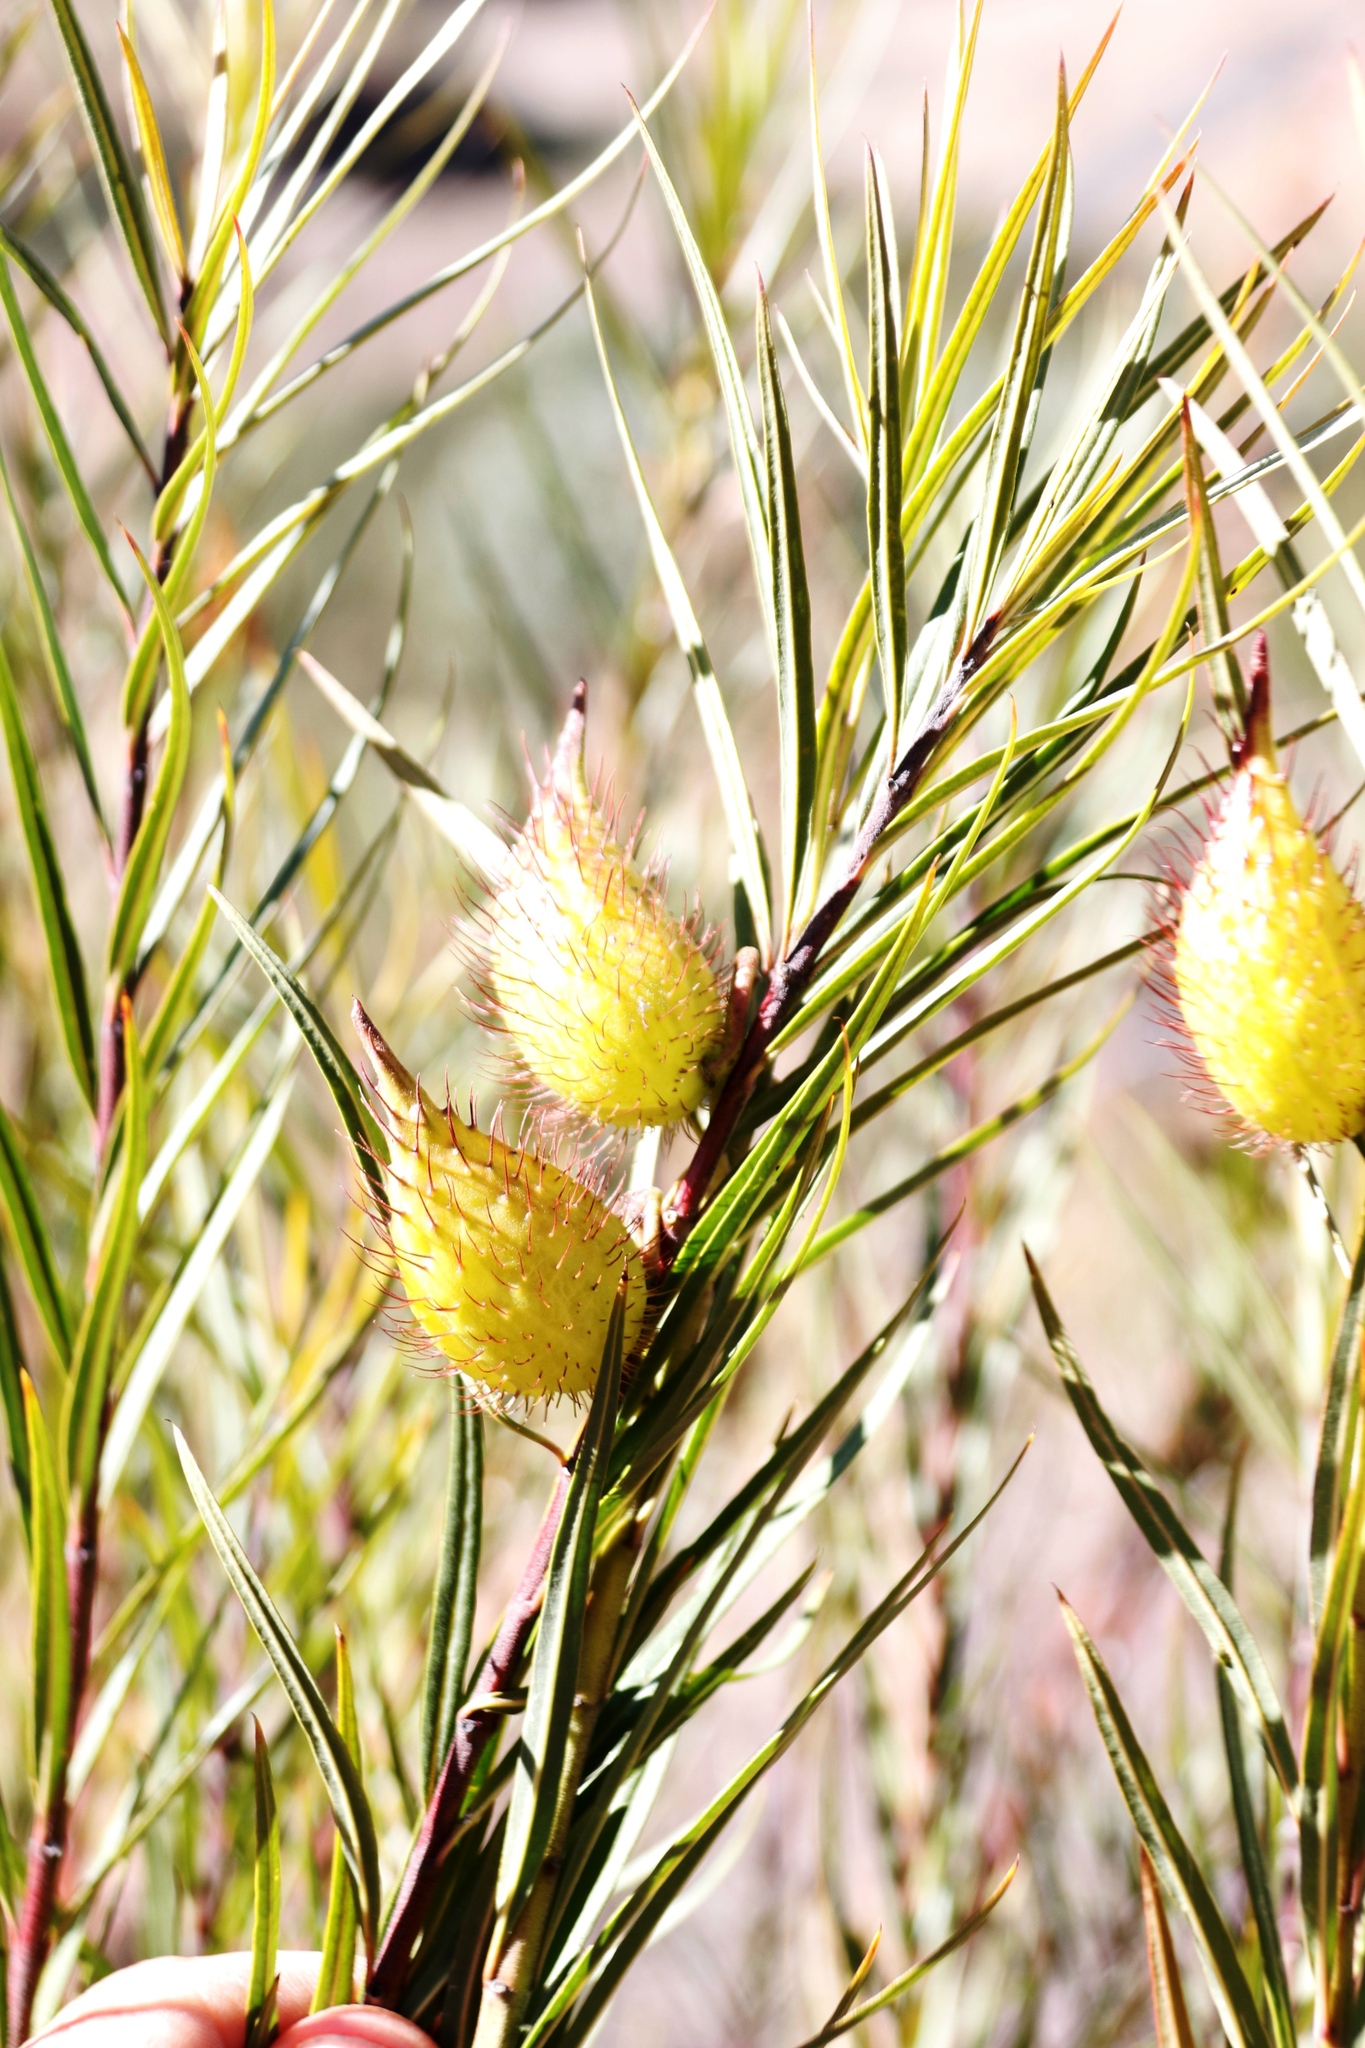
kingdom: Plantae
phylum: Tracheophyta
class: Magnoliopsida
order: Gentianales
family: Apocynaceae
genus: Gomphocarpus
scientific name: Gomphocarpus fruticosus
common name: Milkweed
